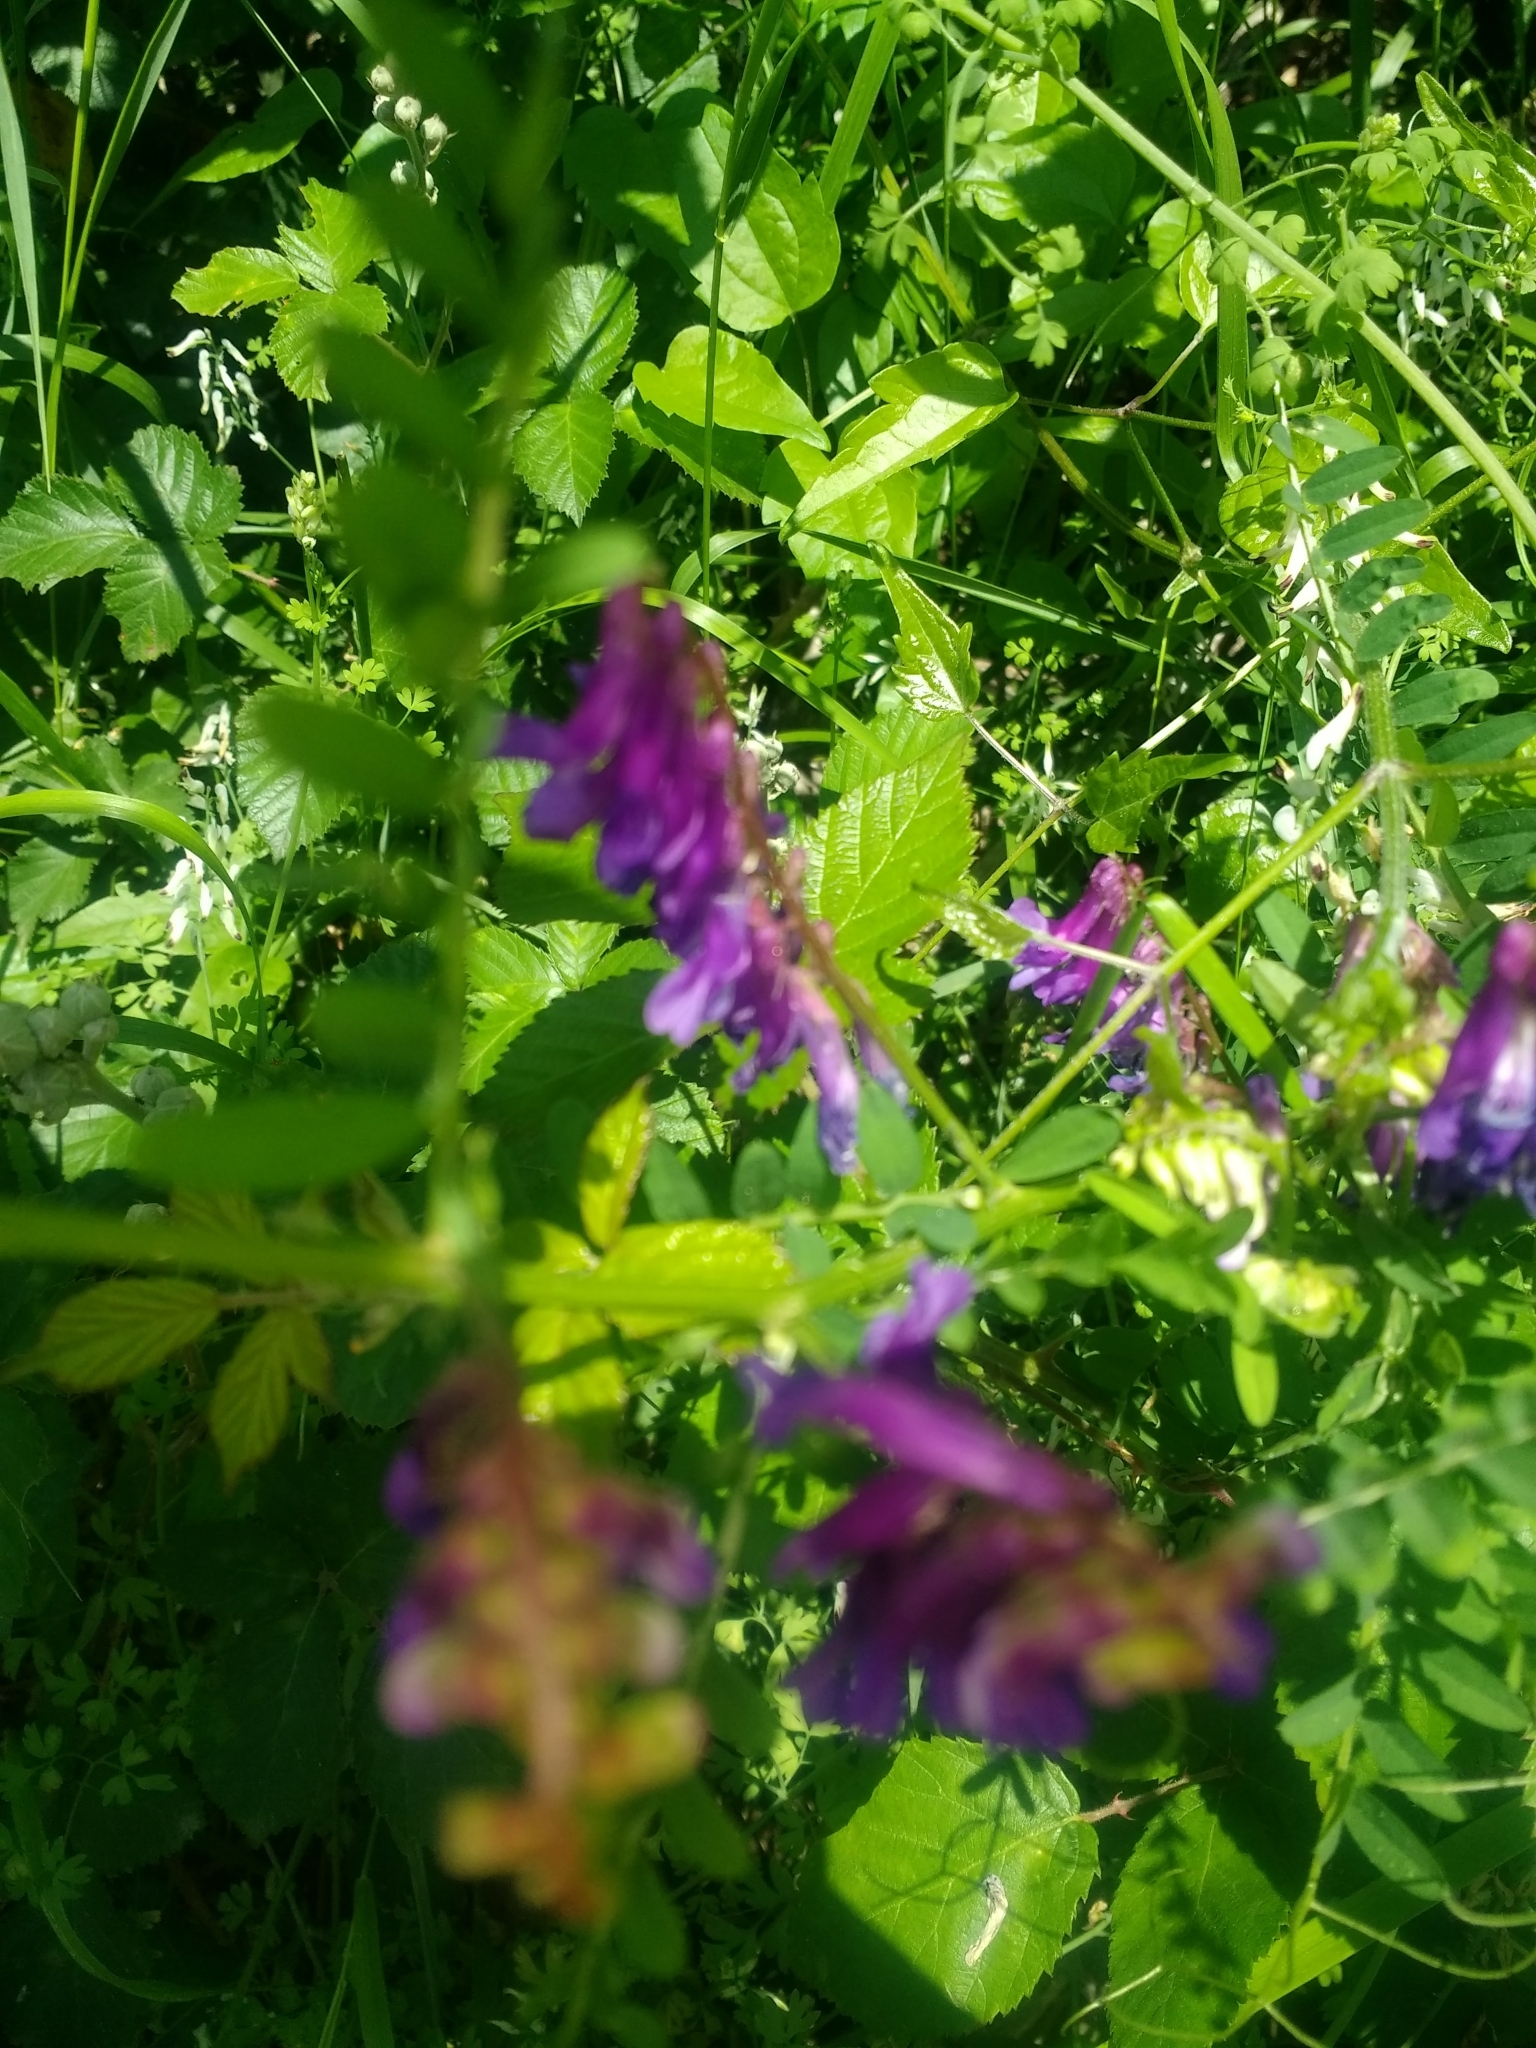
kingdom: Plantae
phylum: Tracheophyta
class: Magnoliopsida
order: Fabales
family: Fabaceae
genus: Vicia
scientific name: Vicia villosa
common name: Fodder vetch
